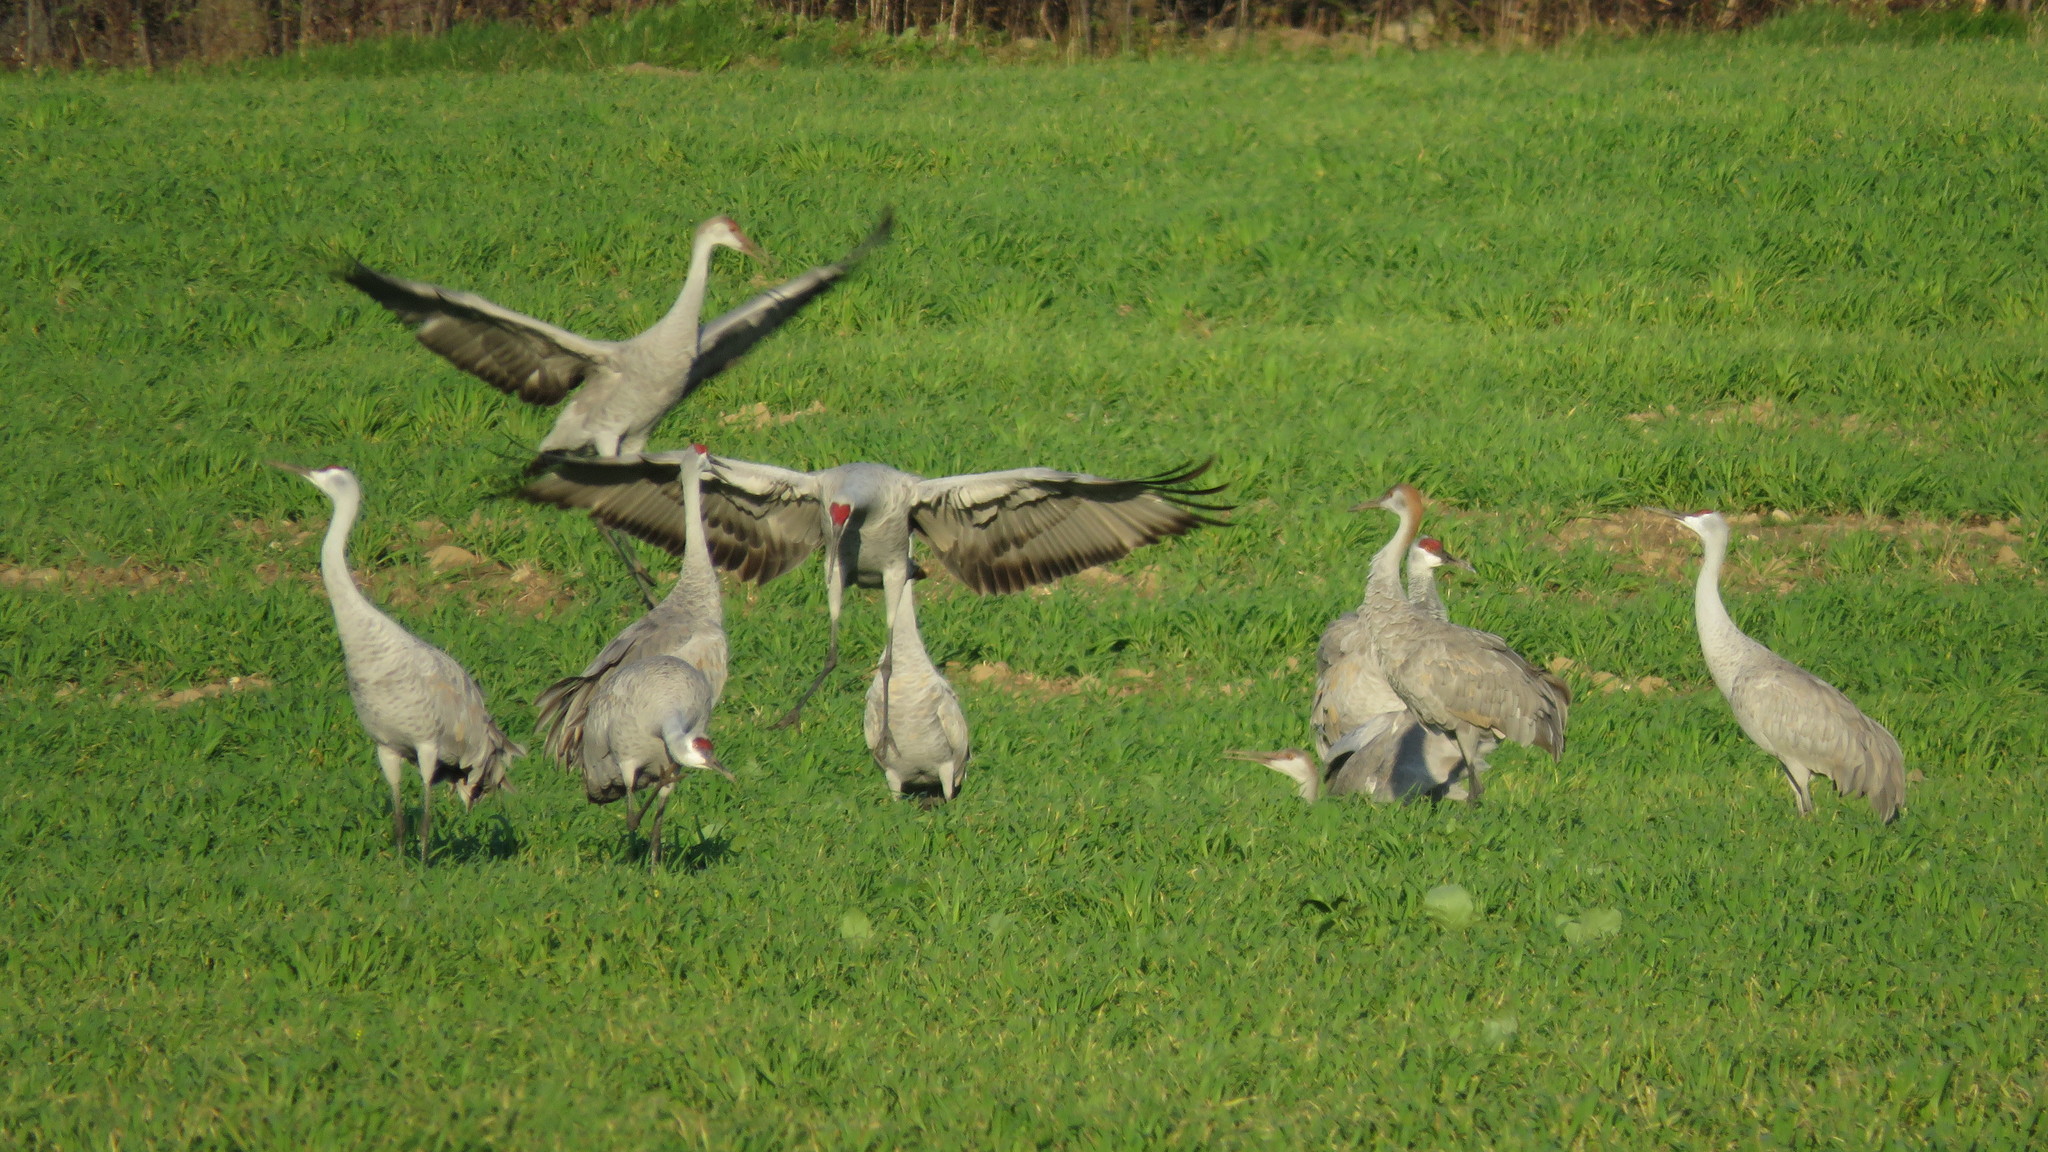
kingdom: Animalia
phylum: Chordata
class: Aves
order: Gruiformes
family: Gruidae
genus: Grus
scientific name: Grus canadensis
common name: Sandhill crane
